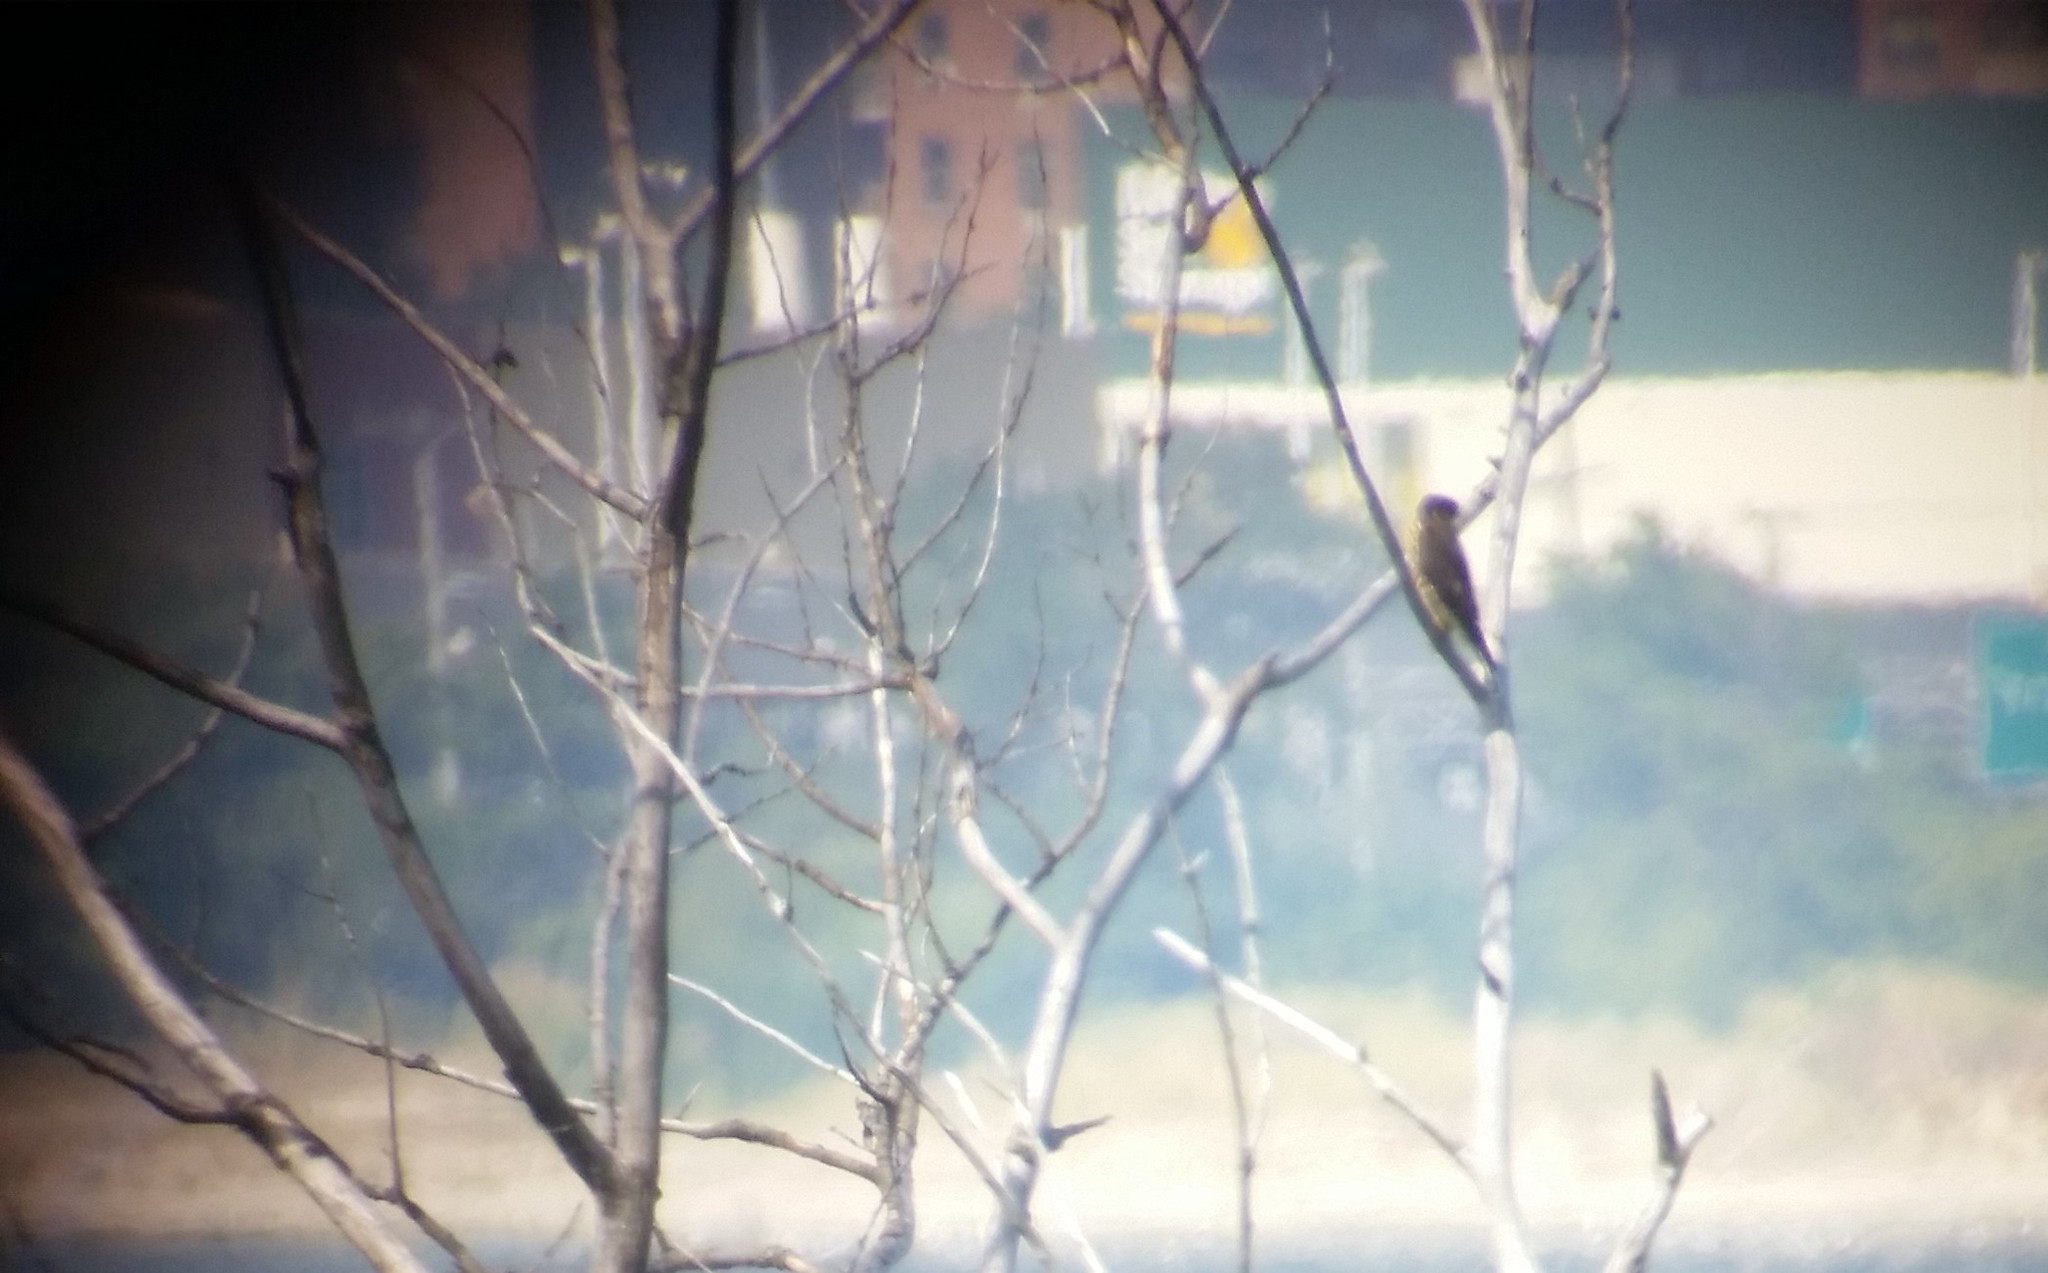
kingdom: Animalia
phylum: Chordata
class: Aves
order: Falconiformes
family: Falconidae
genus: Falco
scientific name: Falco columbarius
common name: Merlin
